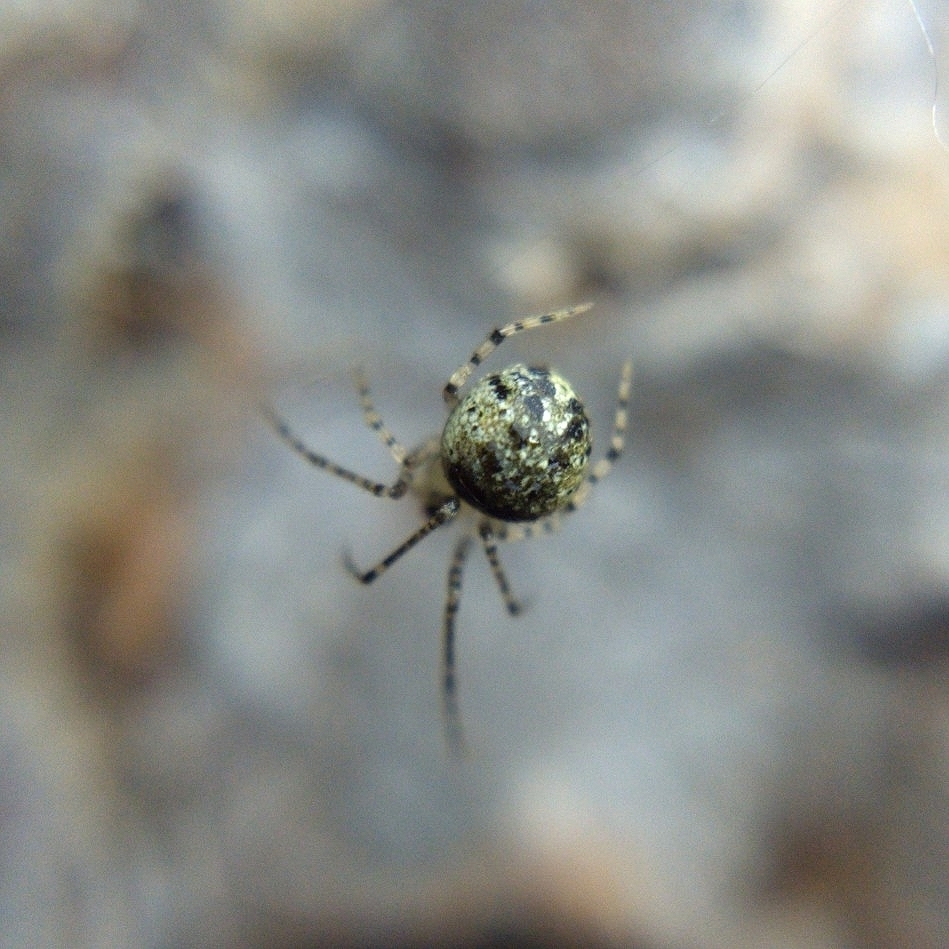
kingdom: Animalia
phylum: Arthropoda
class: Arachnida
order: Araneae
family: Theridiidae
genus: Platnickina
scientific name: Platnickina tincta
